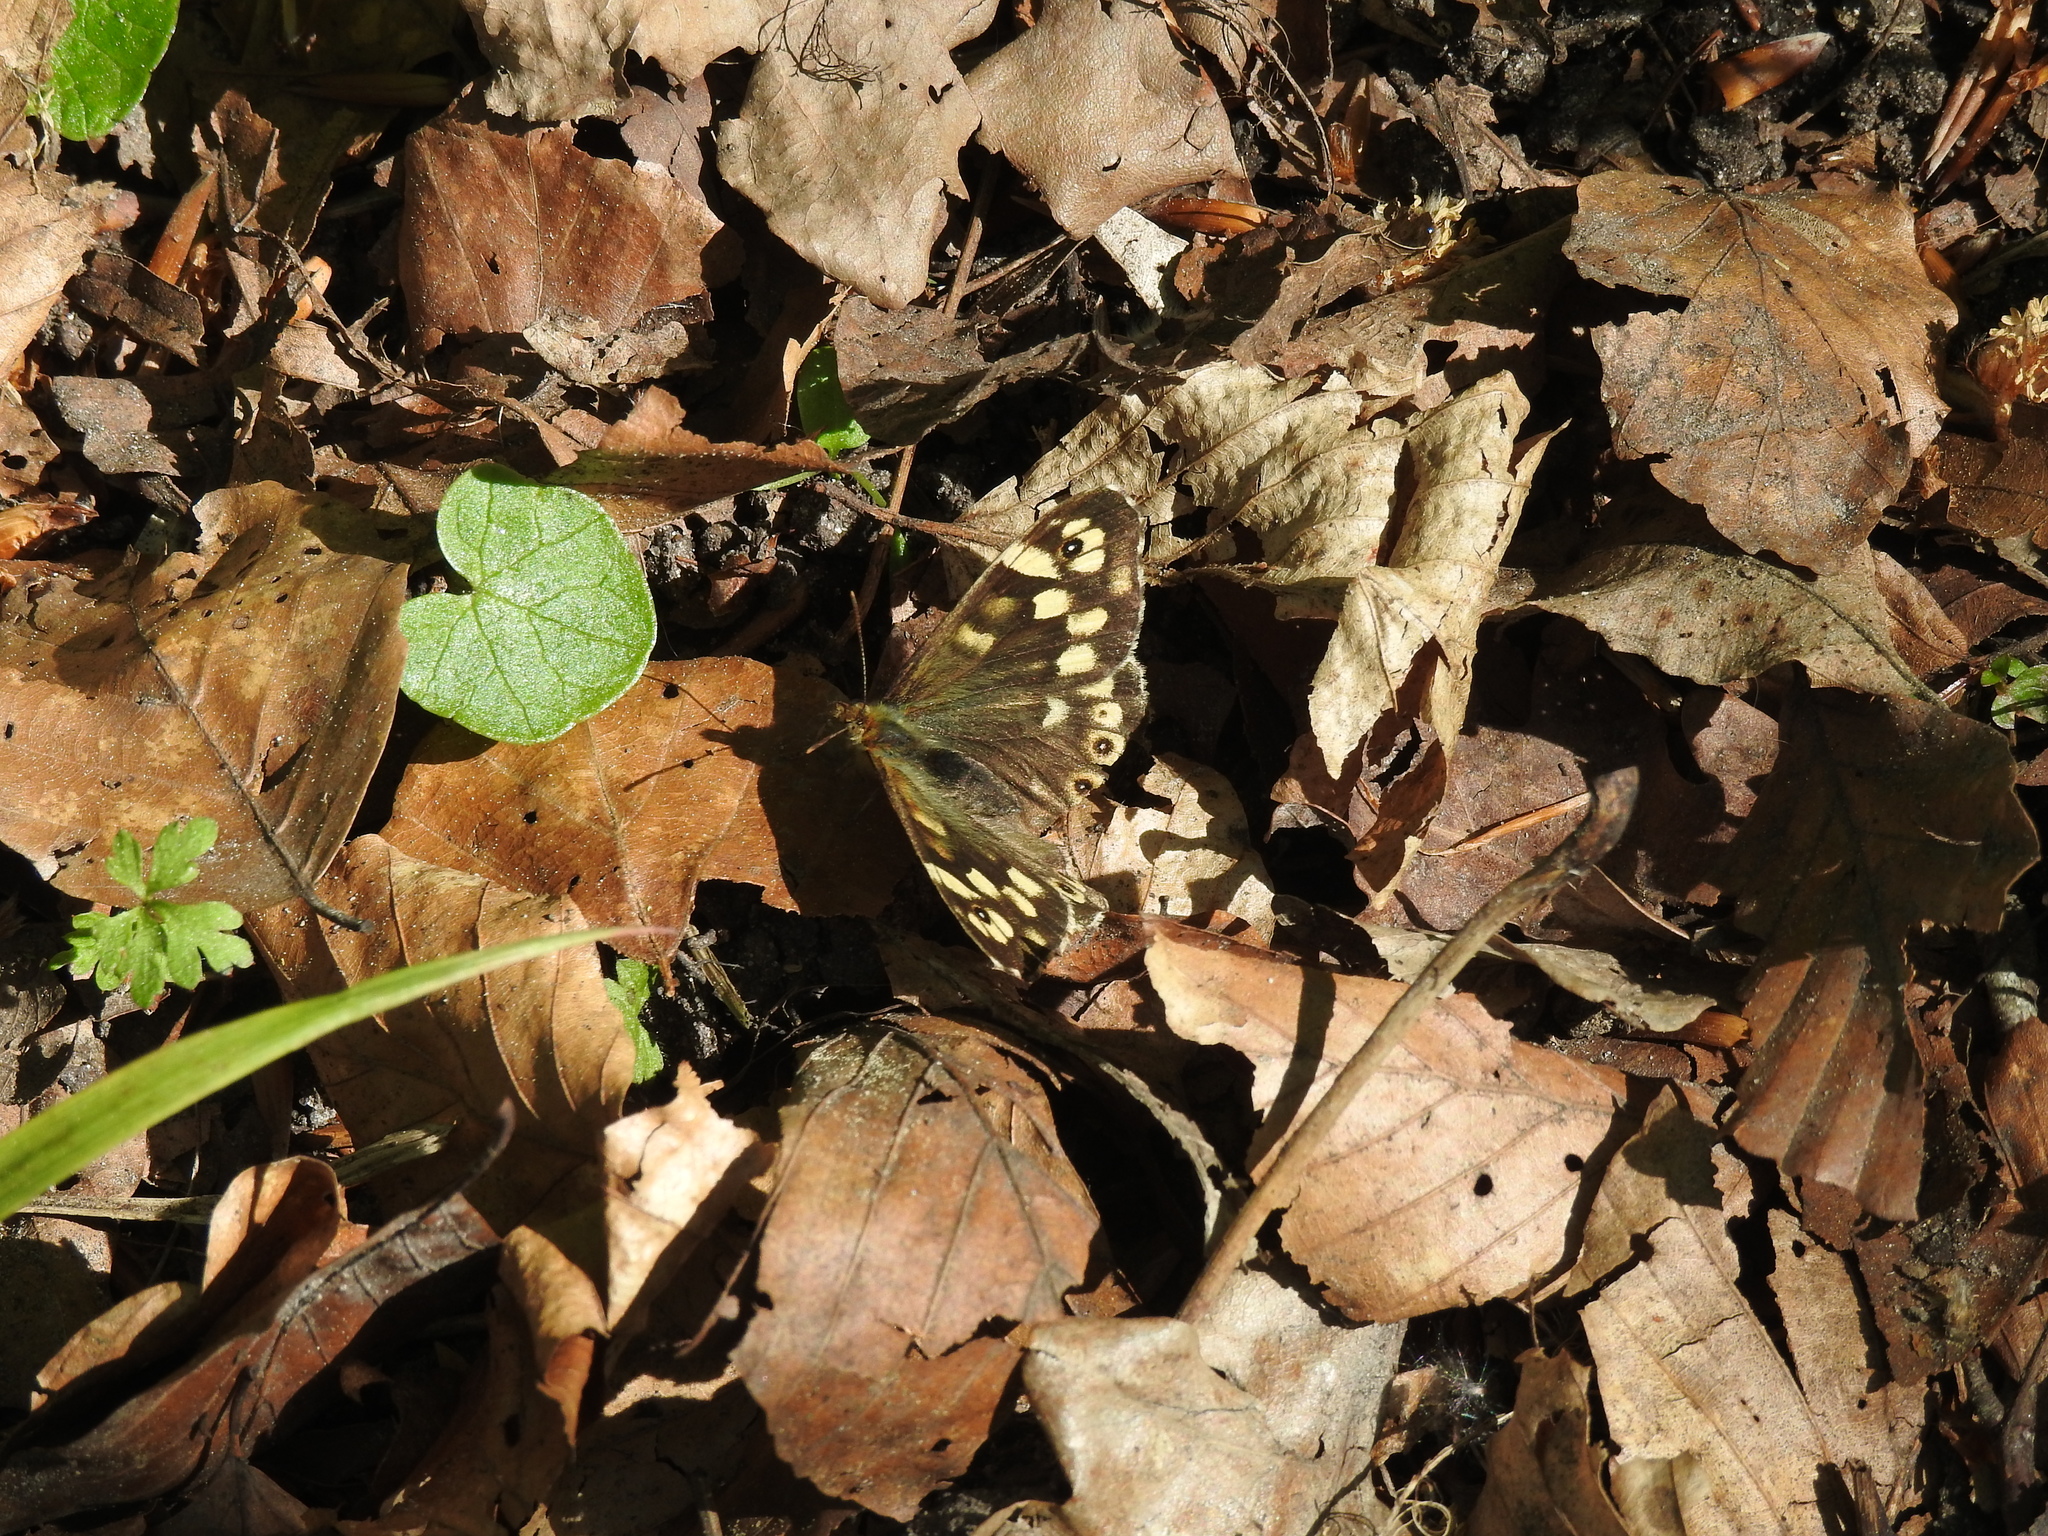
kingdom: Animalia
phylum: Arthropoda
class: Insecta
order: Lepidoptera
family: Nymphalidae
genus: Pararge
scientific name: Pararge aegeria
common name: Speckled wood
